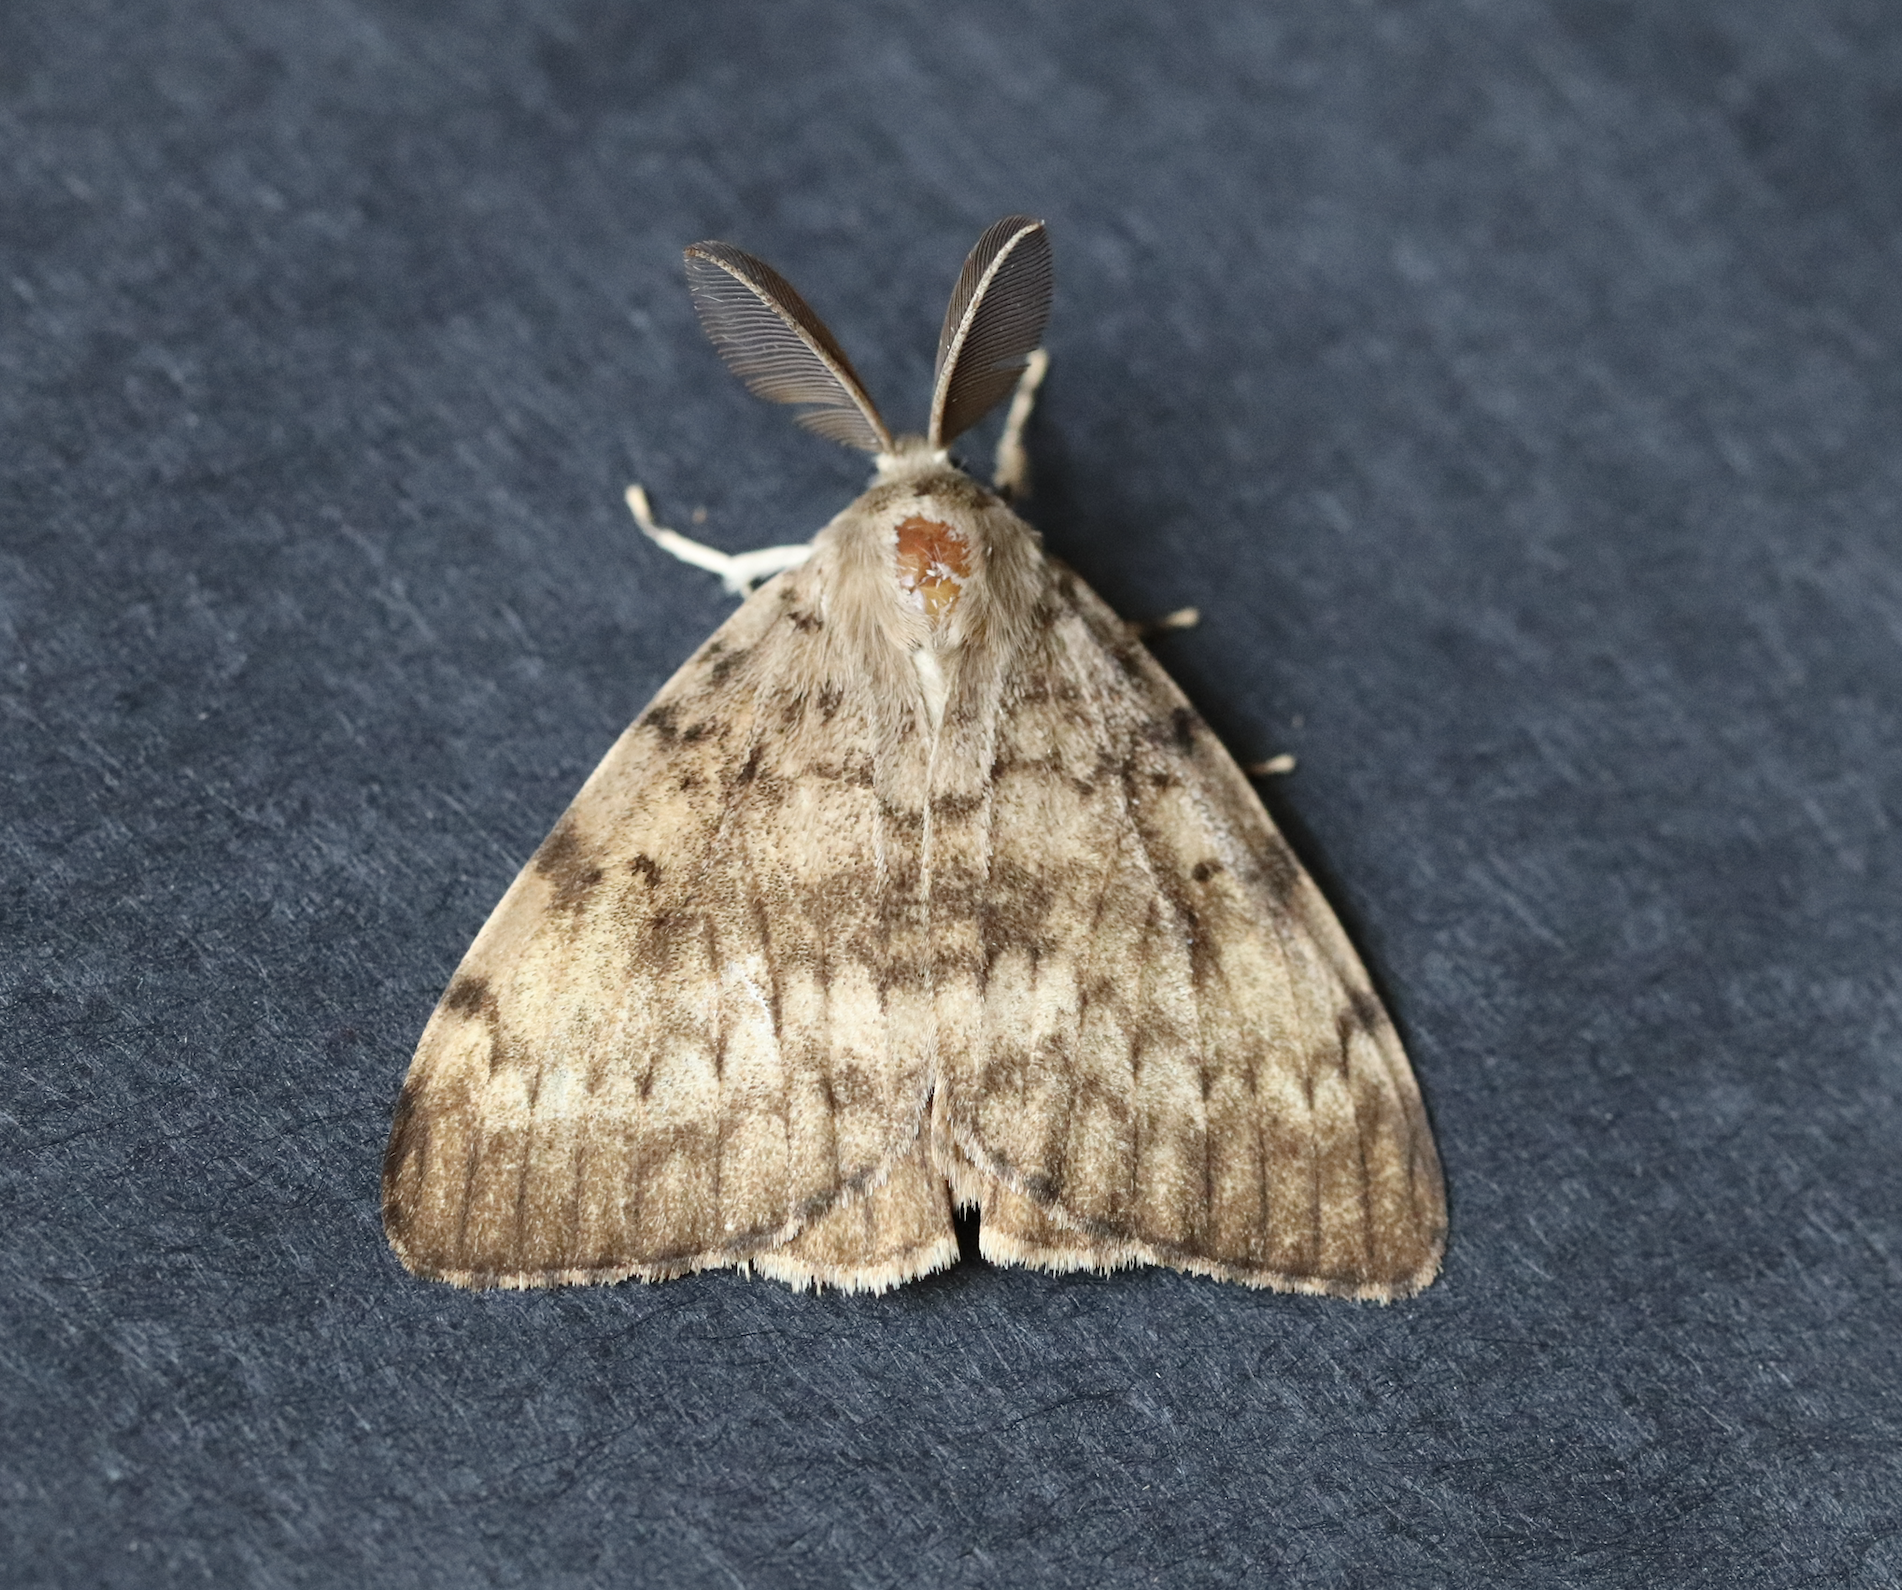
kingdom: Animalia
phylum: Arthropoda
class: Insecta
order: Lepidoptera
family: Erebidae
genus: Lymantria
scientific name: Lymantria dispar
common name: Gypsy moth
